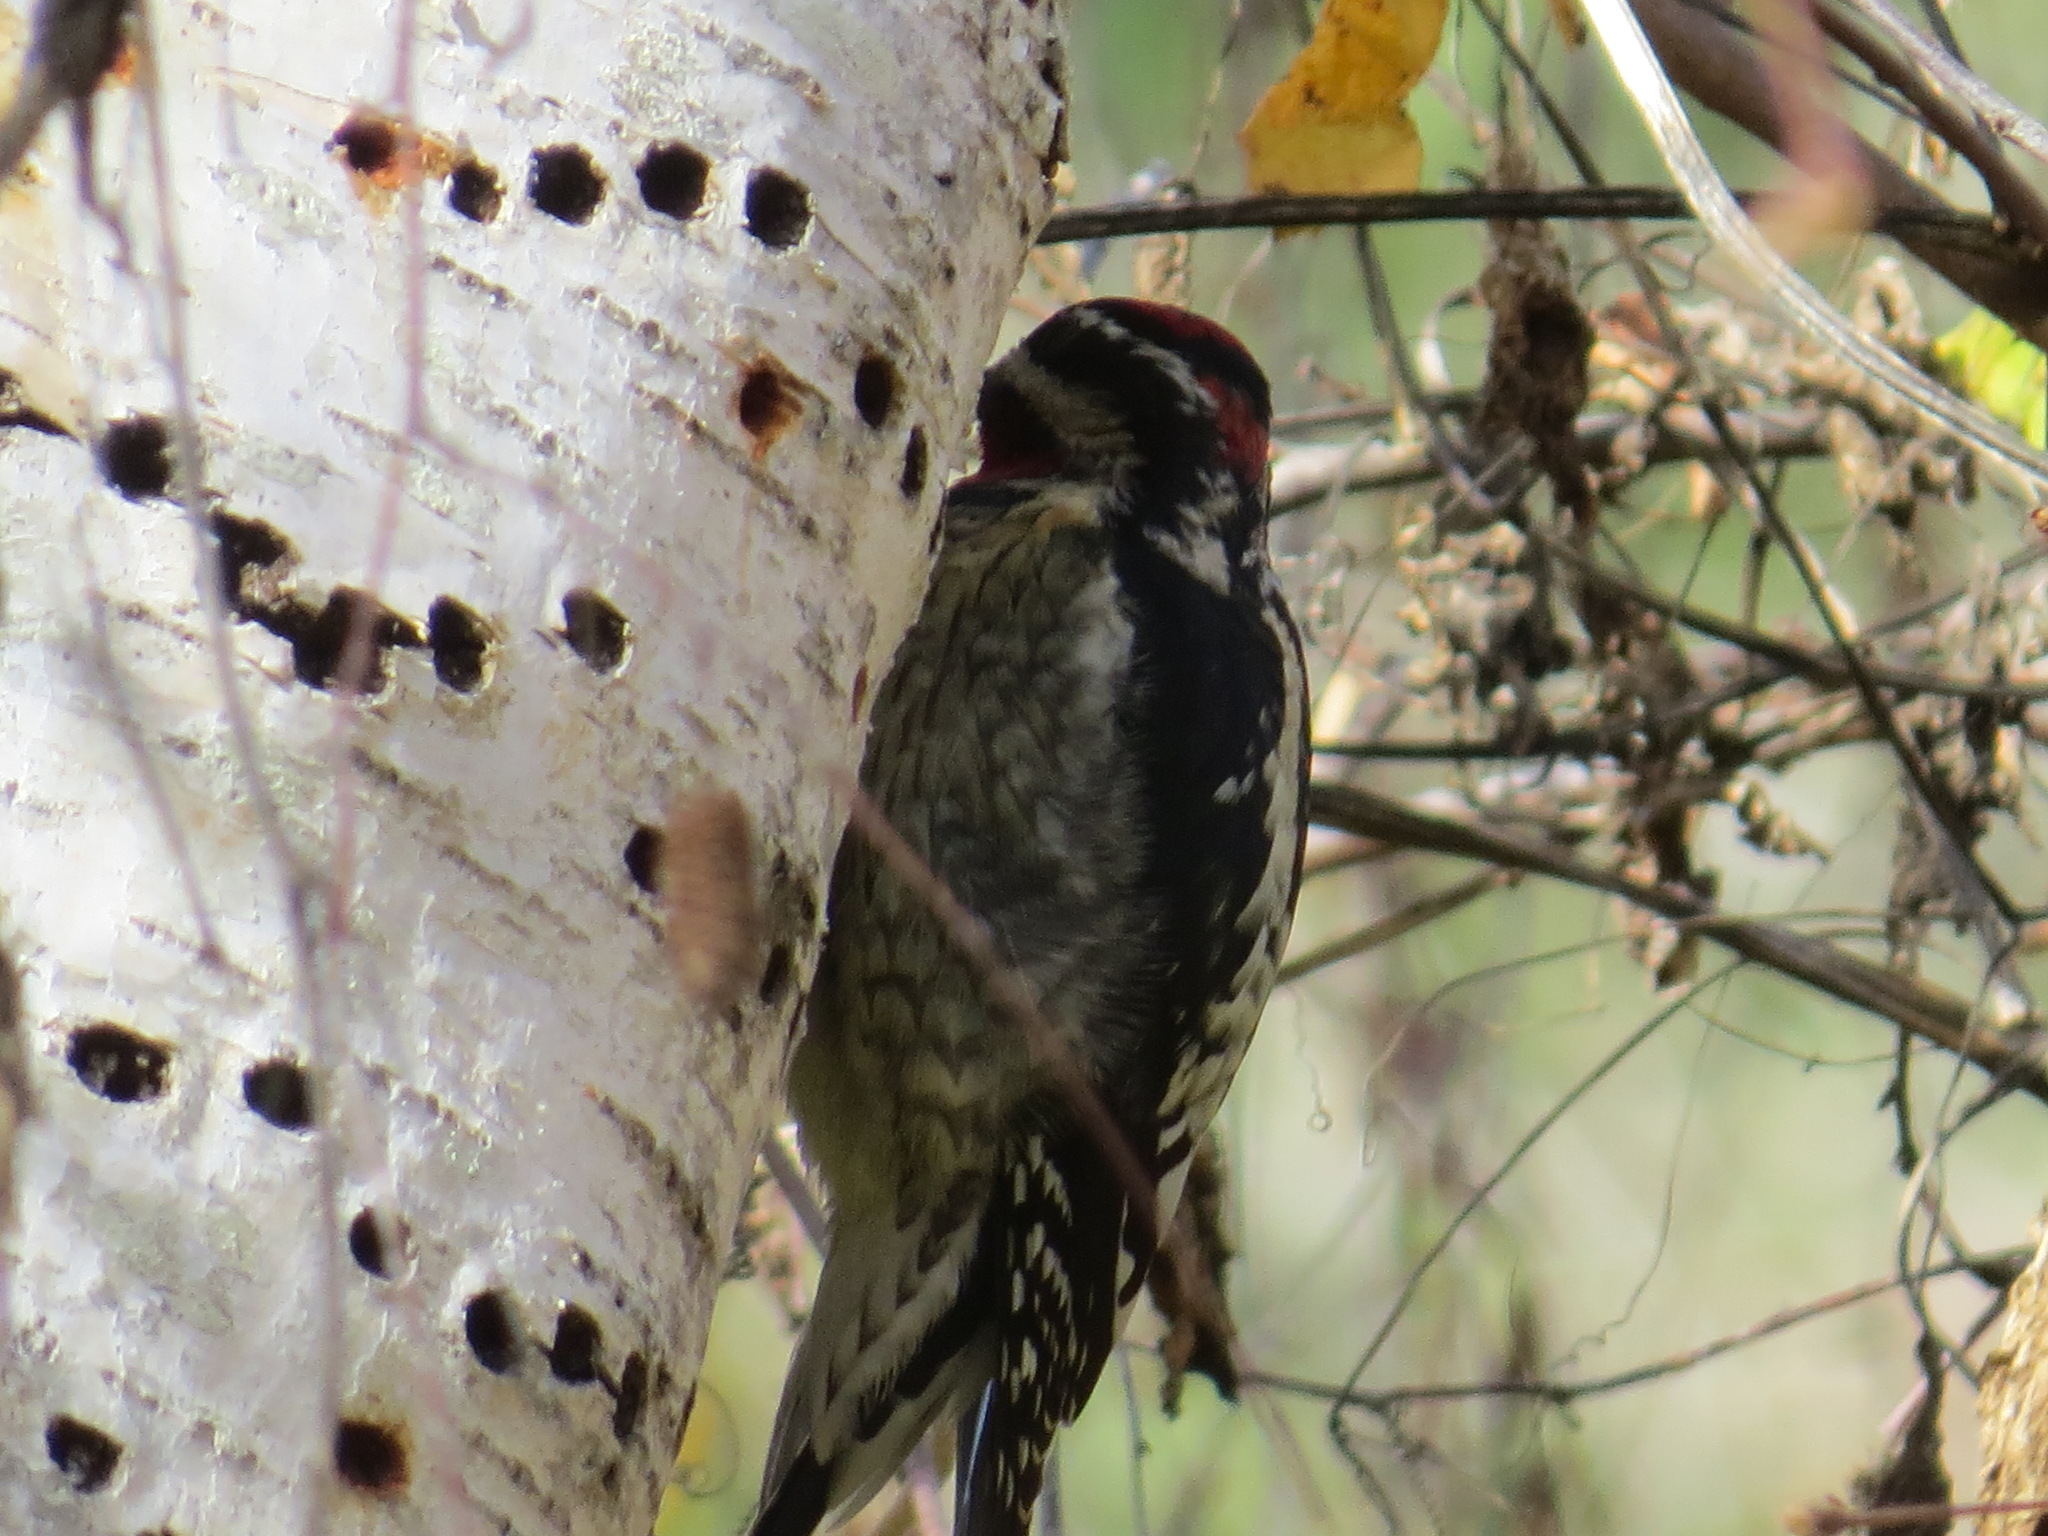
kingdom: Animalia
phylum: Chordata
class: Aves
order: Piciformes
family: Picidae
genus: Sphyrapicus
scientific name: Sphyrapicus nuchalis
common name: Red-naped sapsucker
